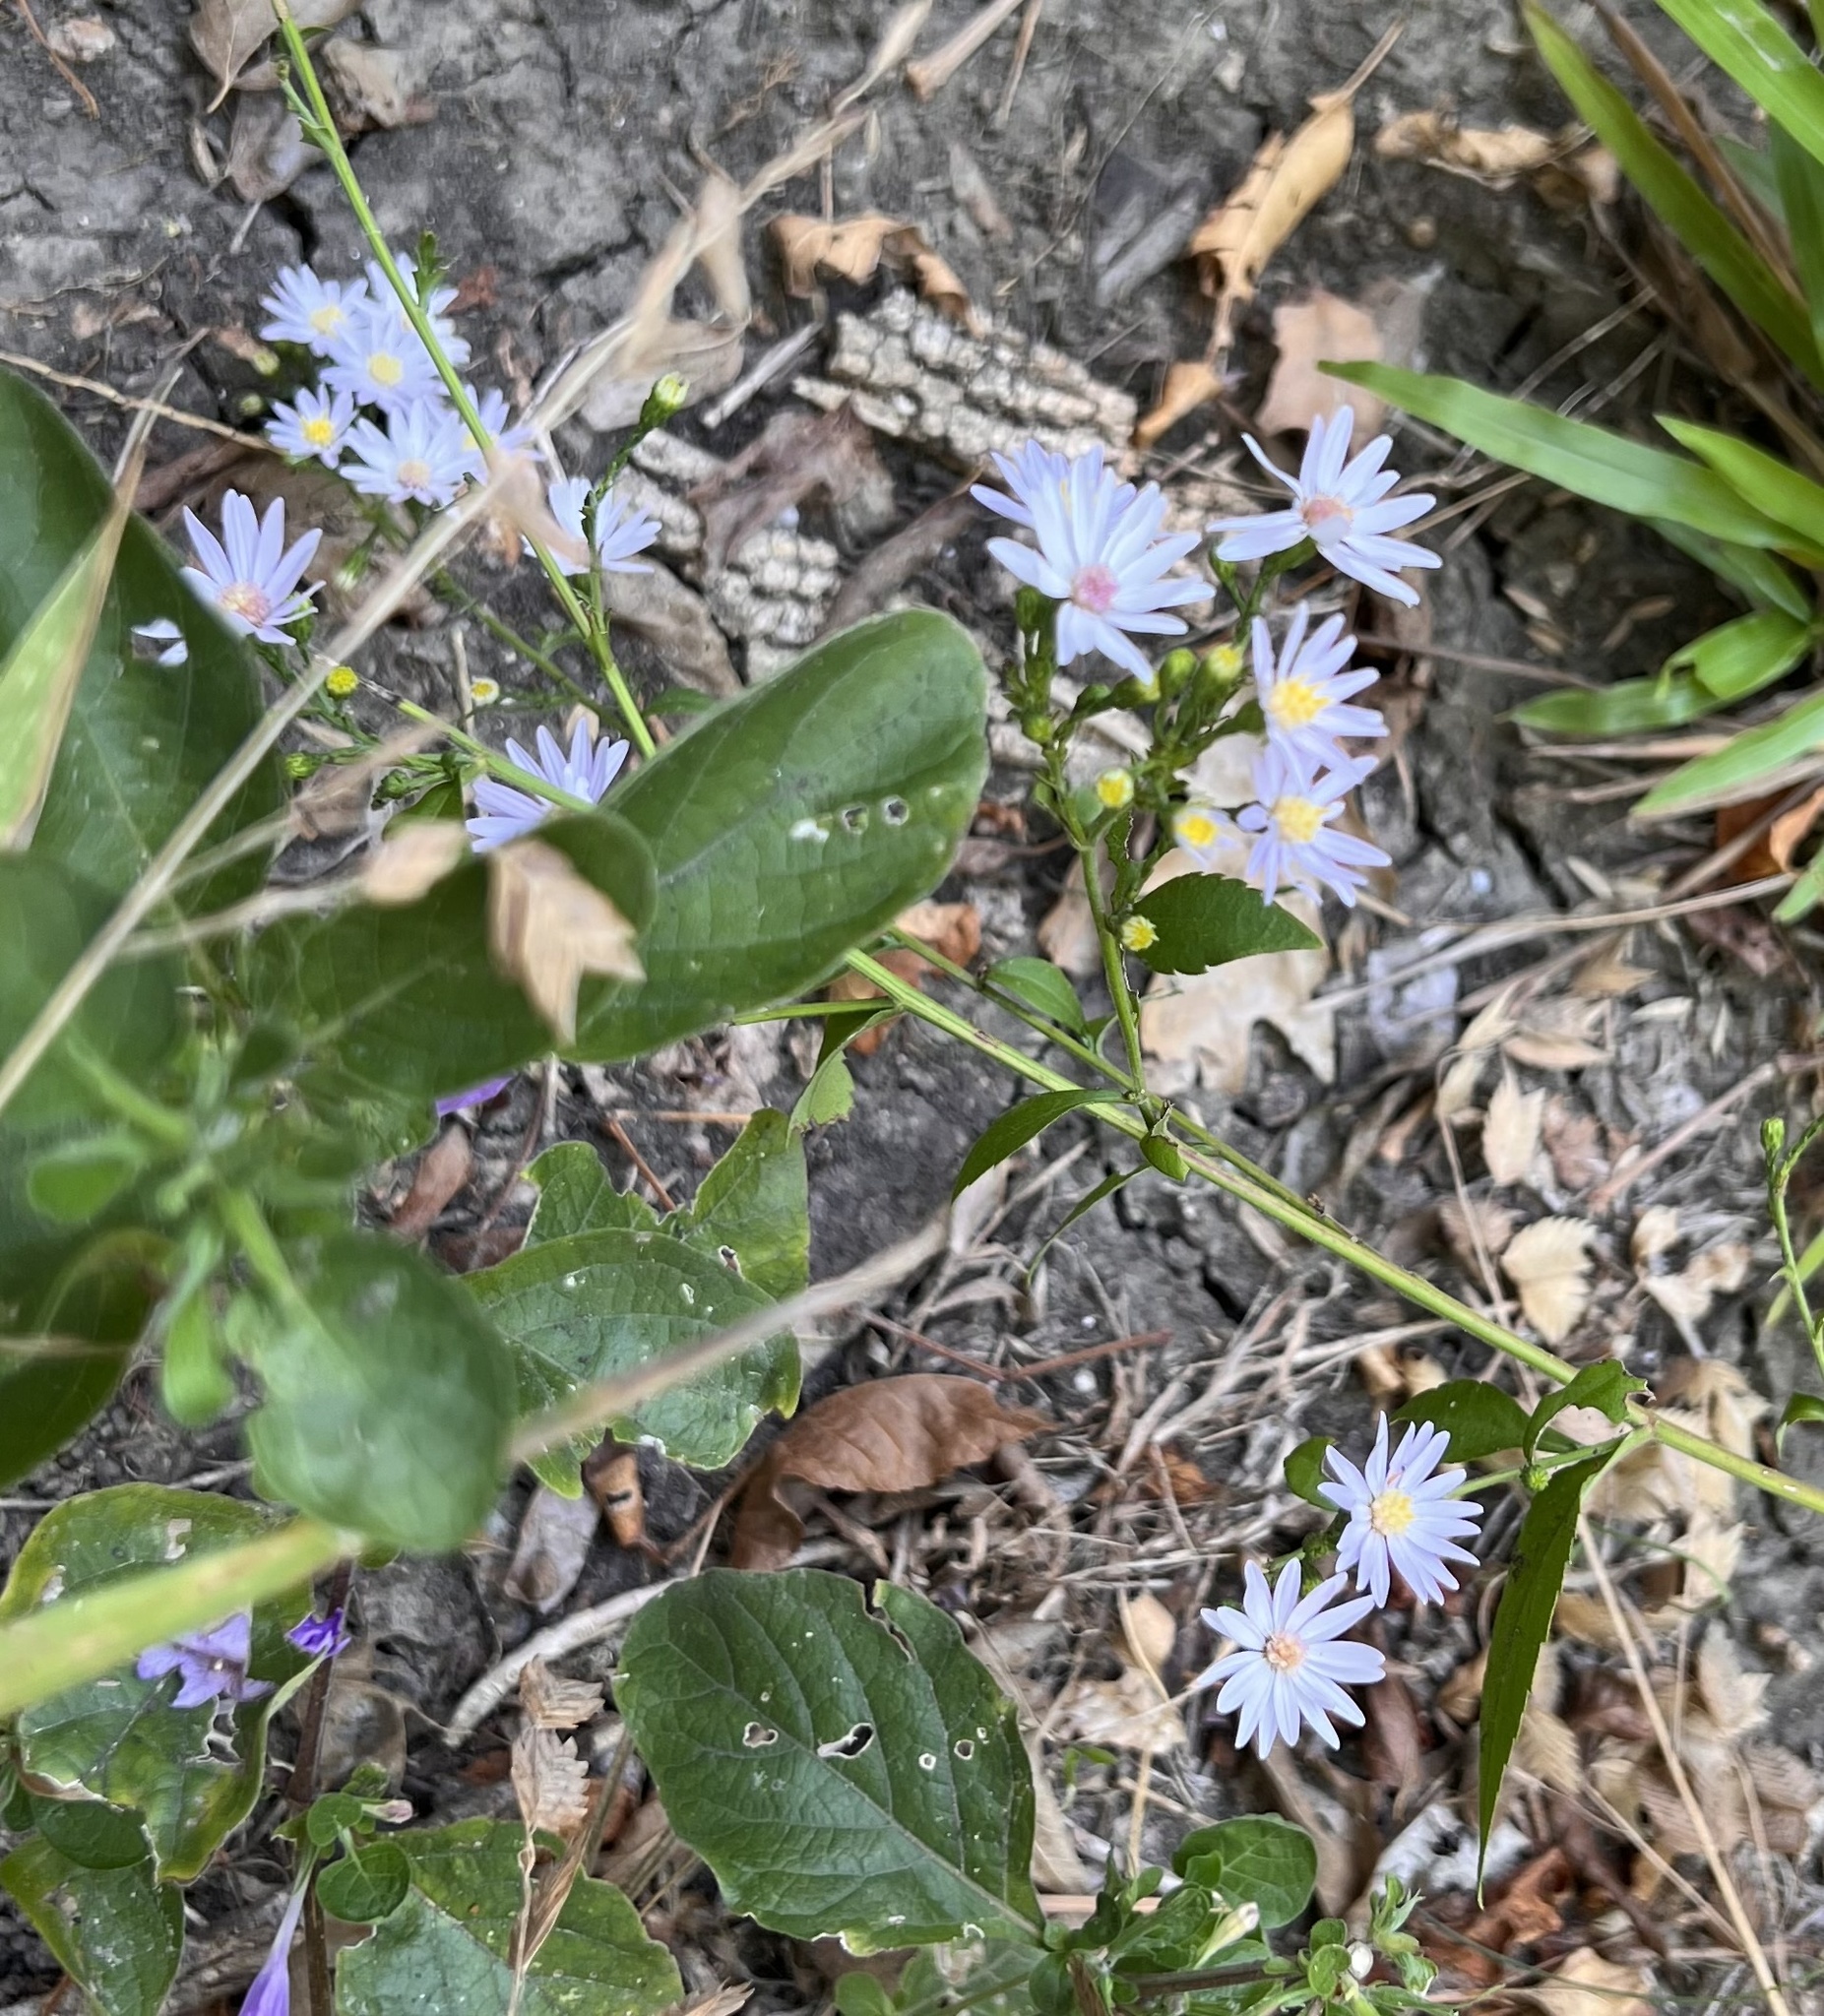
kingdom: Plantae
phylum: Tracheophyta
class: Magnoliopsida
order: Asterales
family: Asteraceae
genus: Symphyotrichum
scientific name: Symphyotrichum drummondii
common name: Drummond's aster
